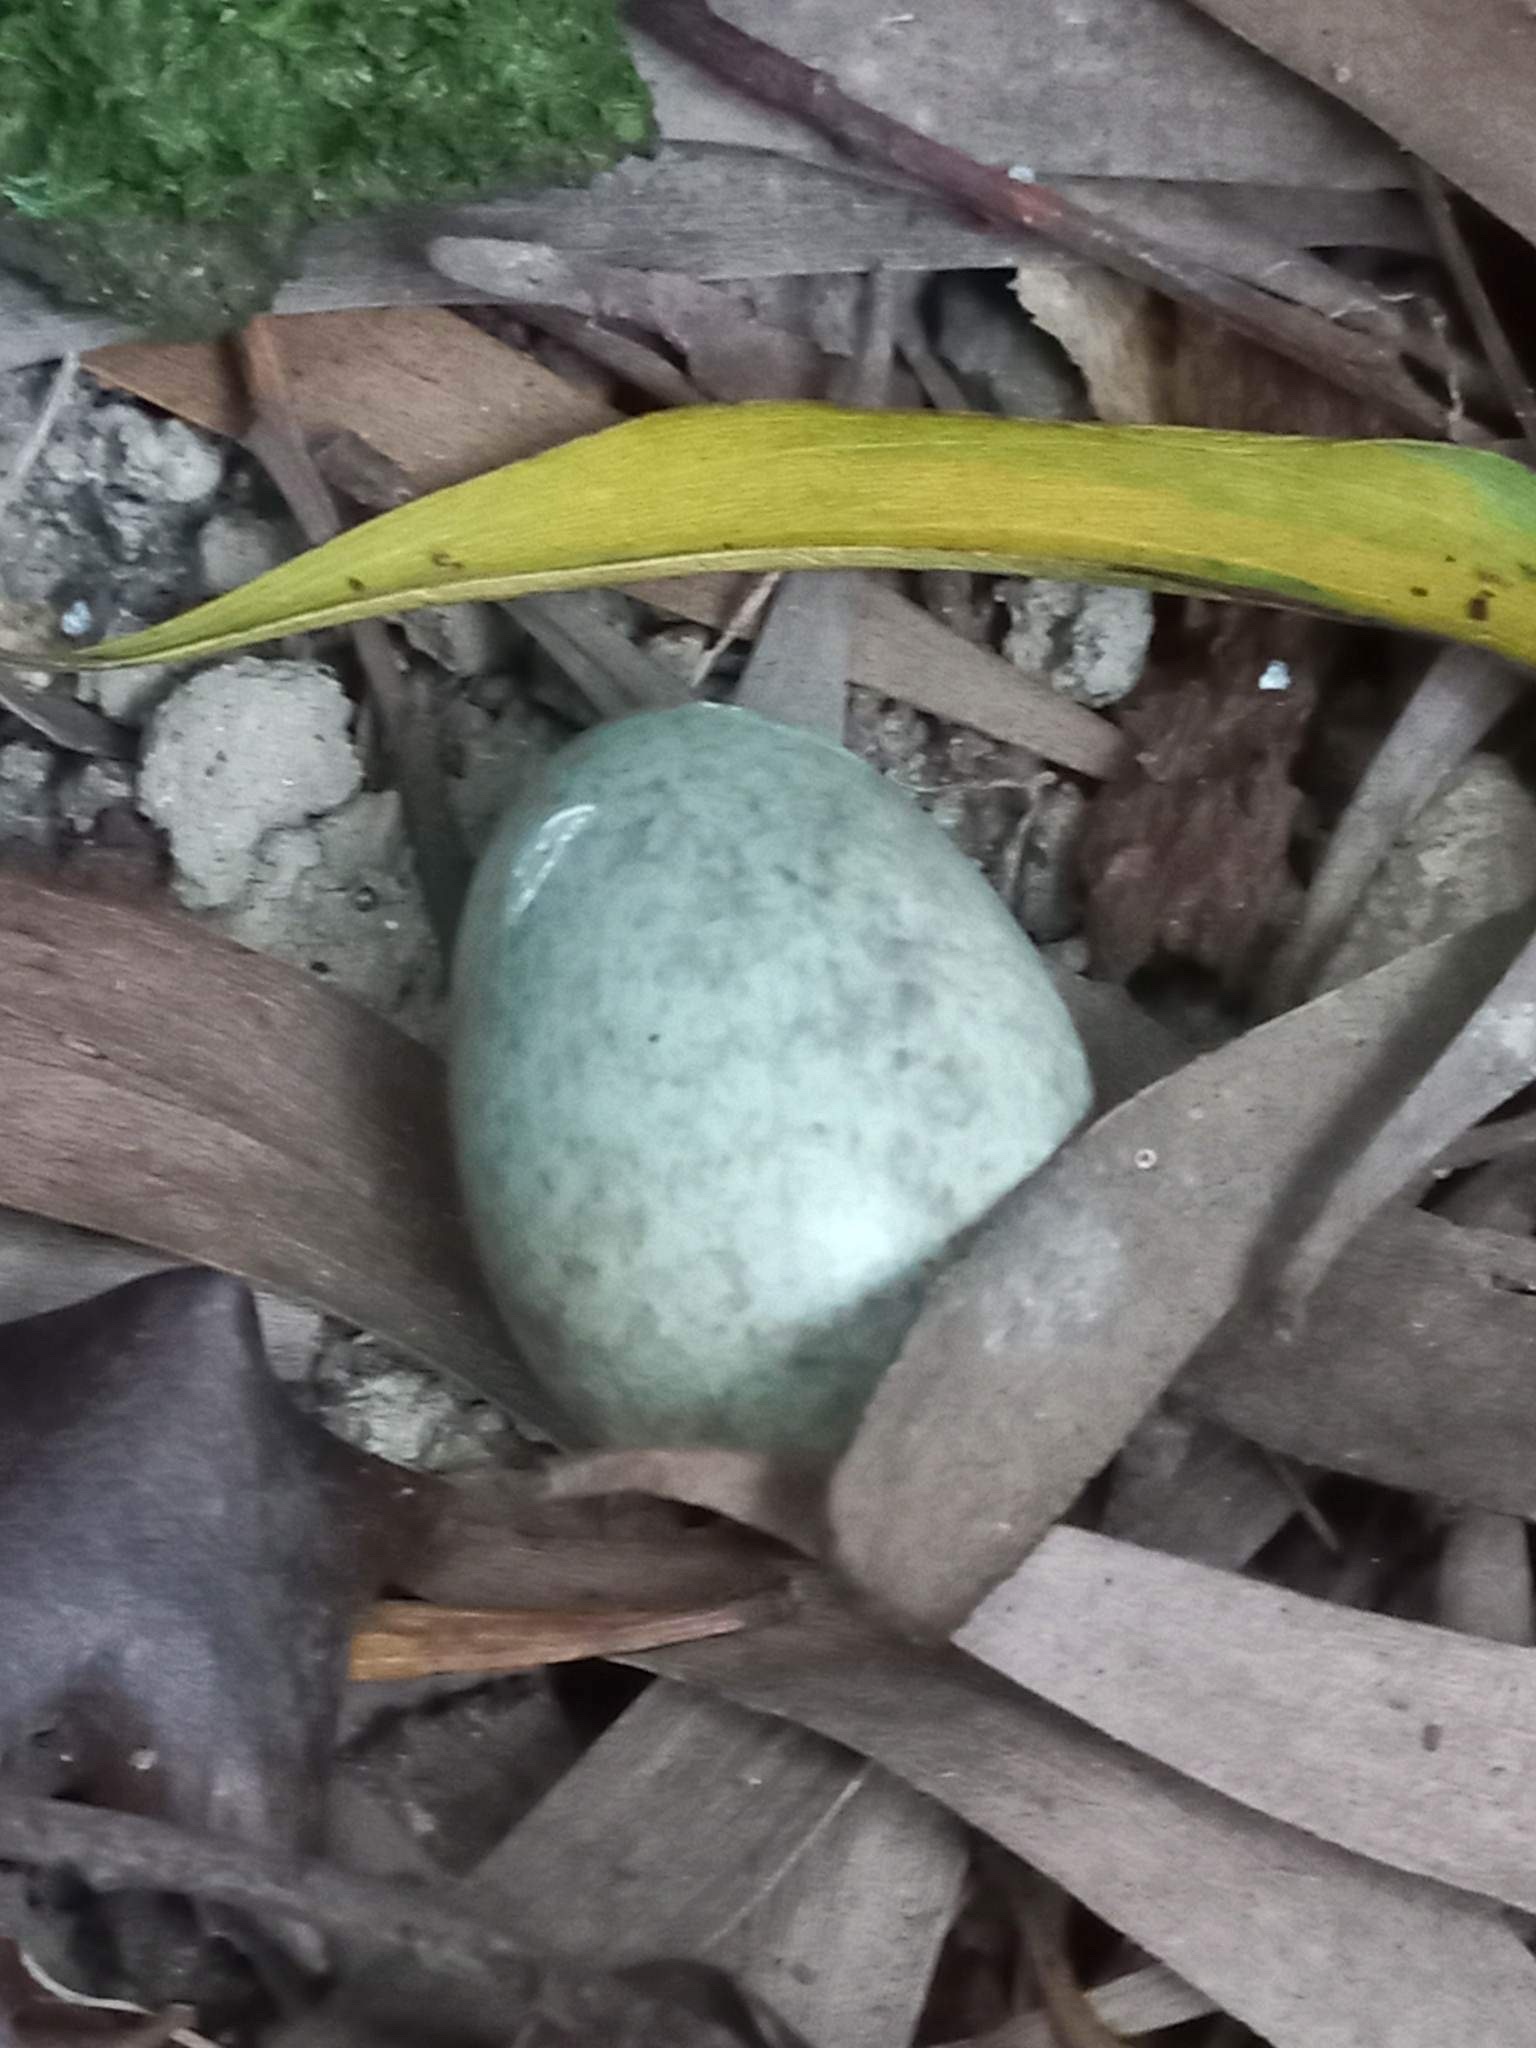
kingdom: Animalia
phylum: Chordata
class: Aves
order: Passeriformes
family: Turdidae
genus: Turdus
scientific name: Turdus merula
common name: Common blackbird
